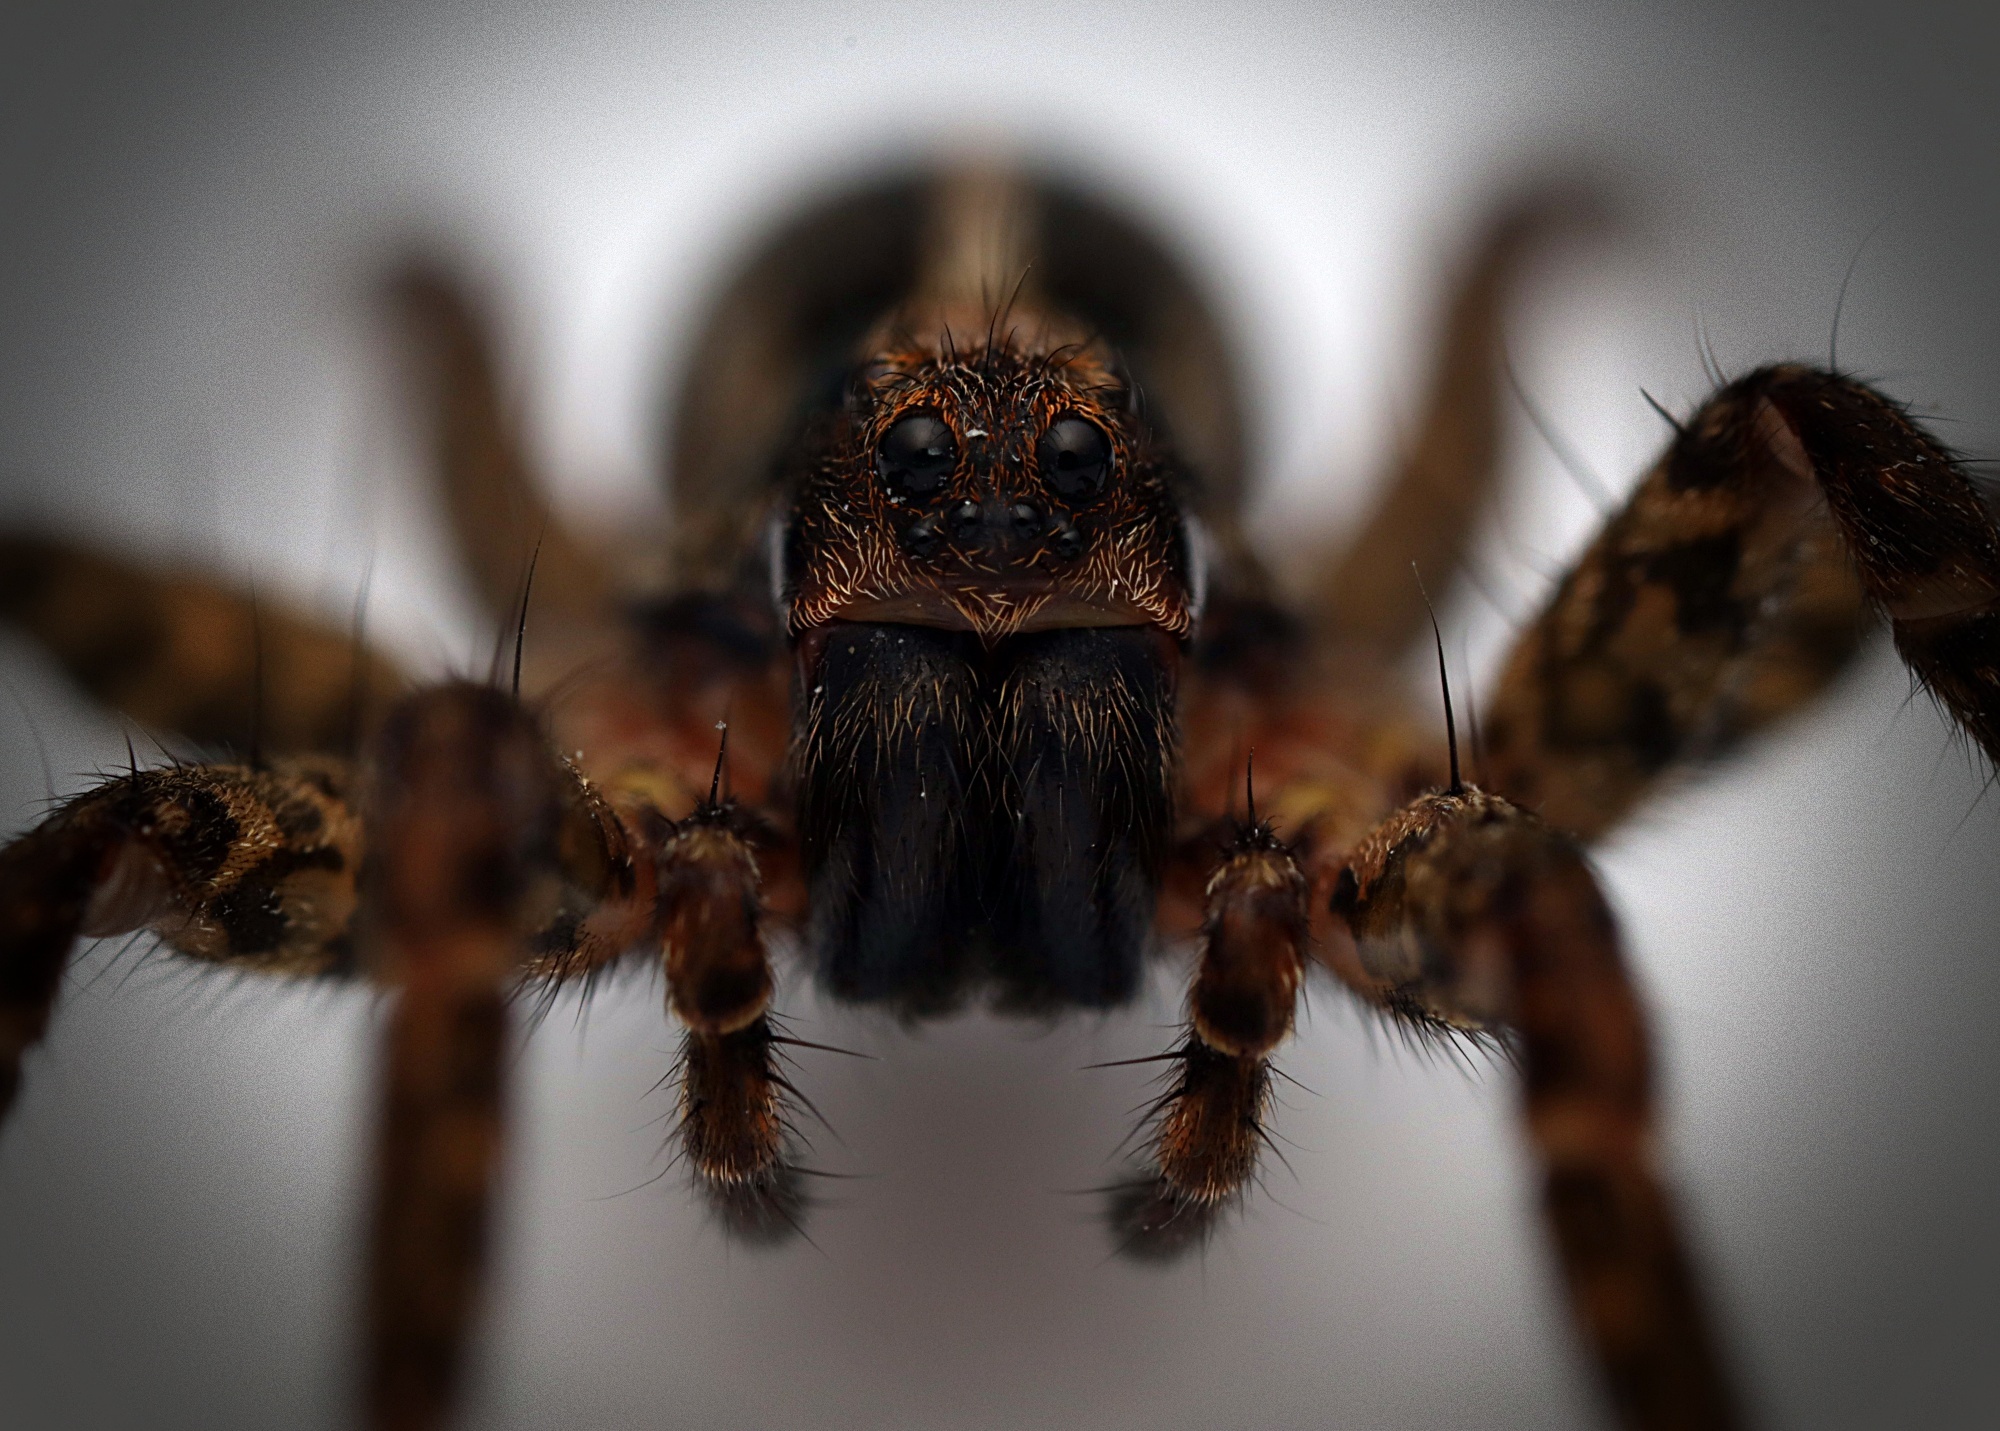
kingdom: Animalia
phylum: Arthropoda
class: Arachnida
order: Araneae
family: Lycosidae
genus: Anoteropsis
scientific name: Anoteropsis hilaris
